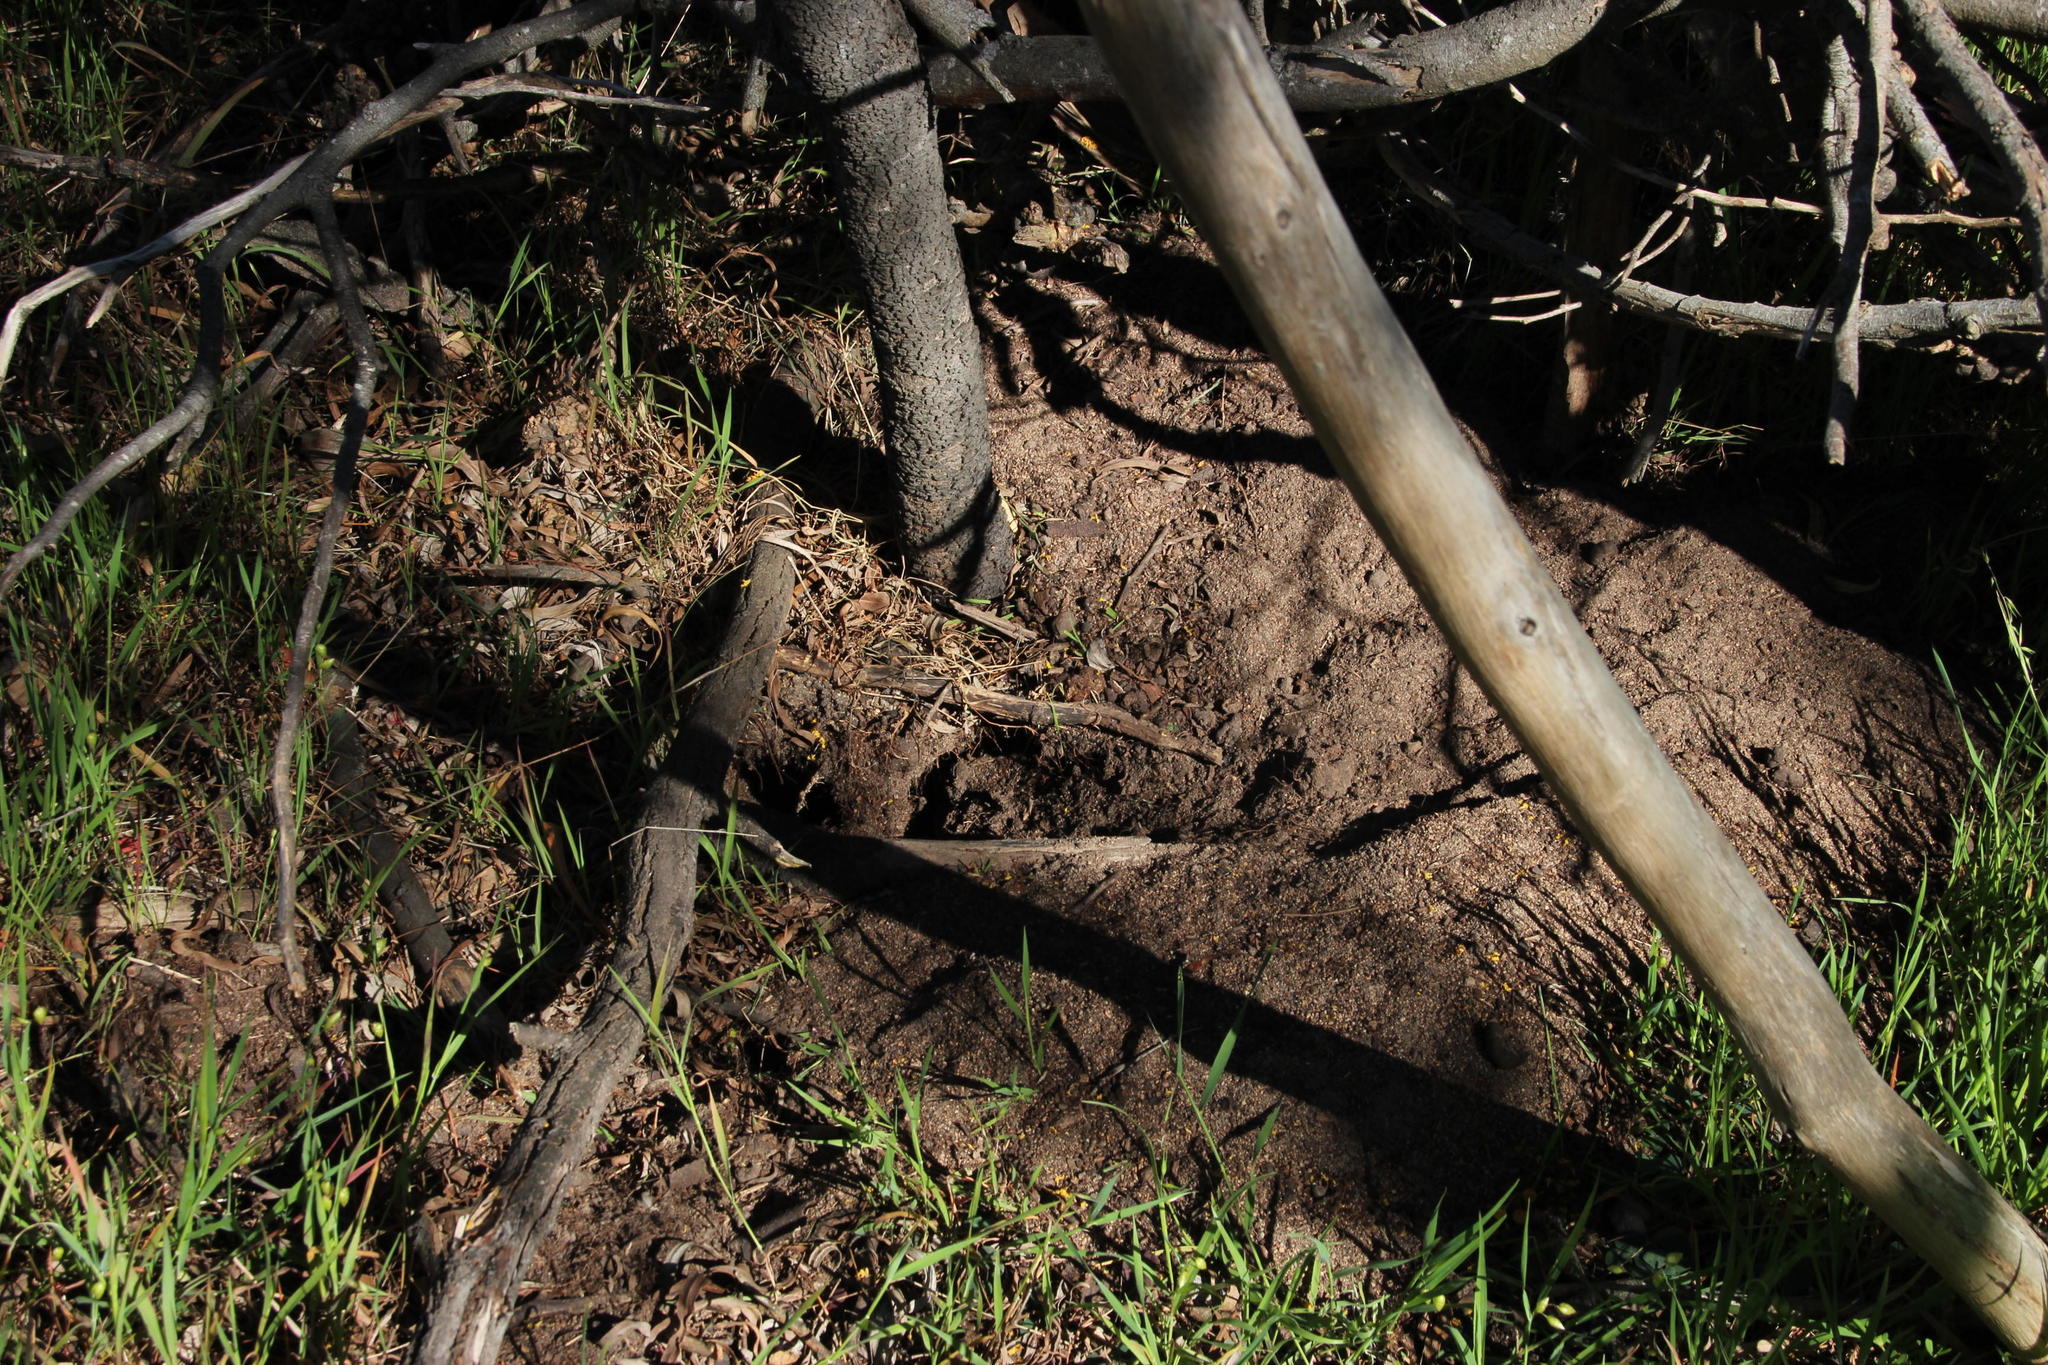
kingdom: Animalia
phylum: Chordata
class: Mammalia
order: Rodentia
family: Muridae
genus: Gerbilliscus
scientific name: Gerbilliscus afer
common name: Cape gerbil
